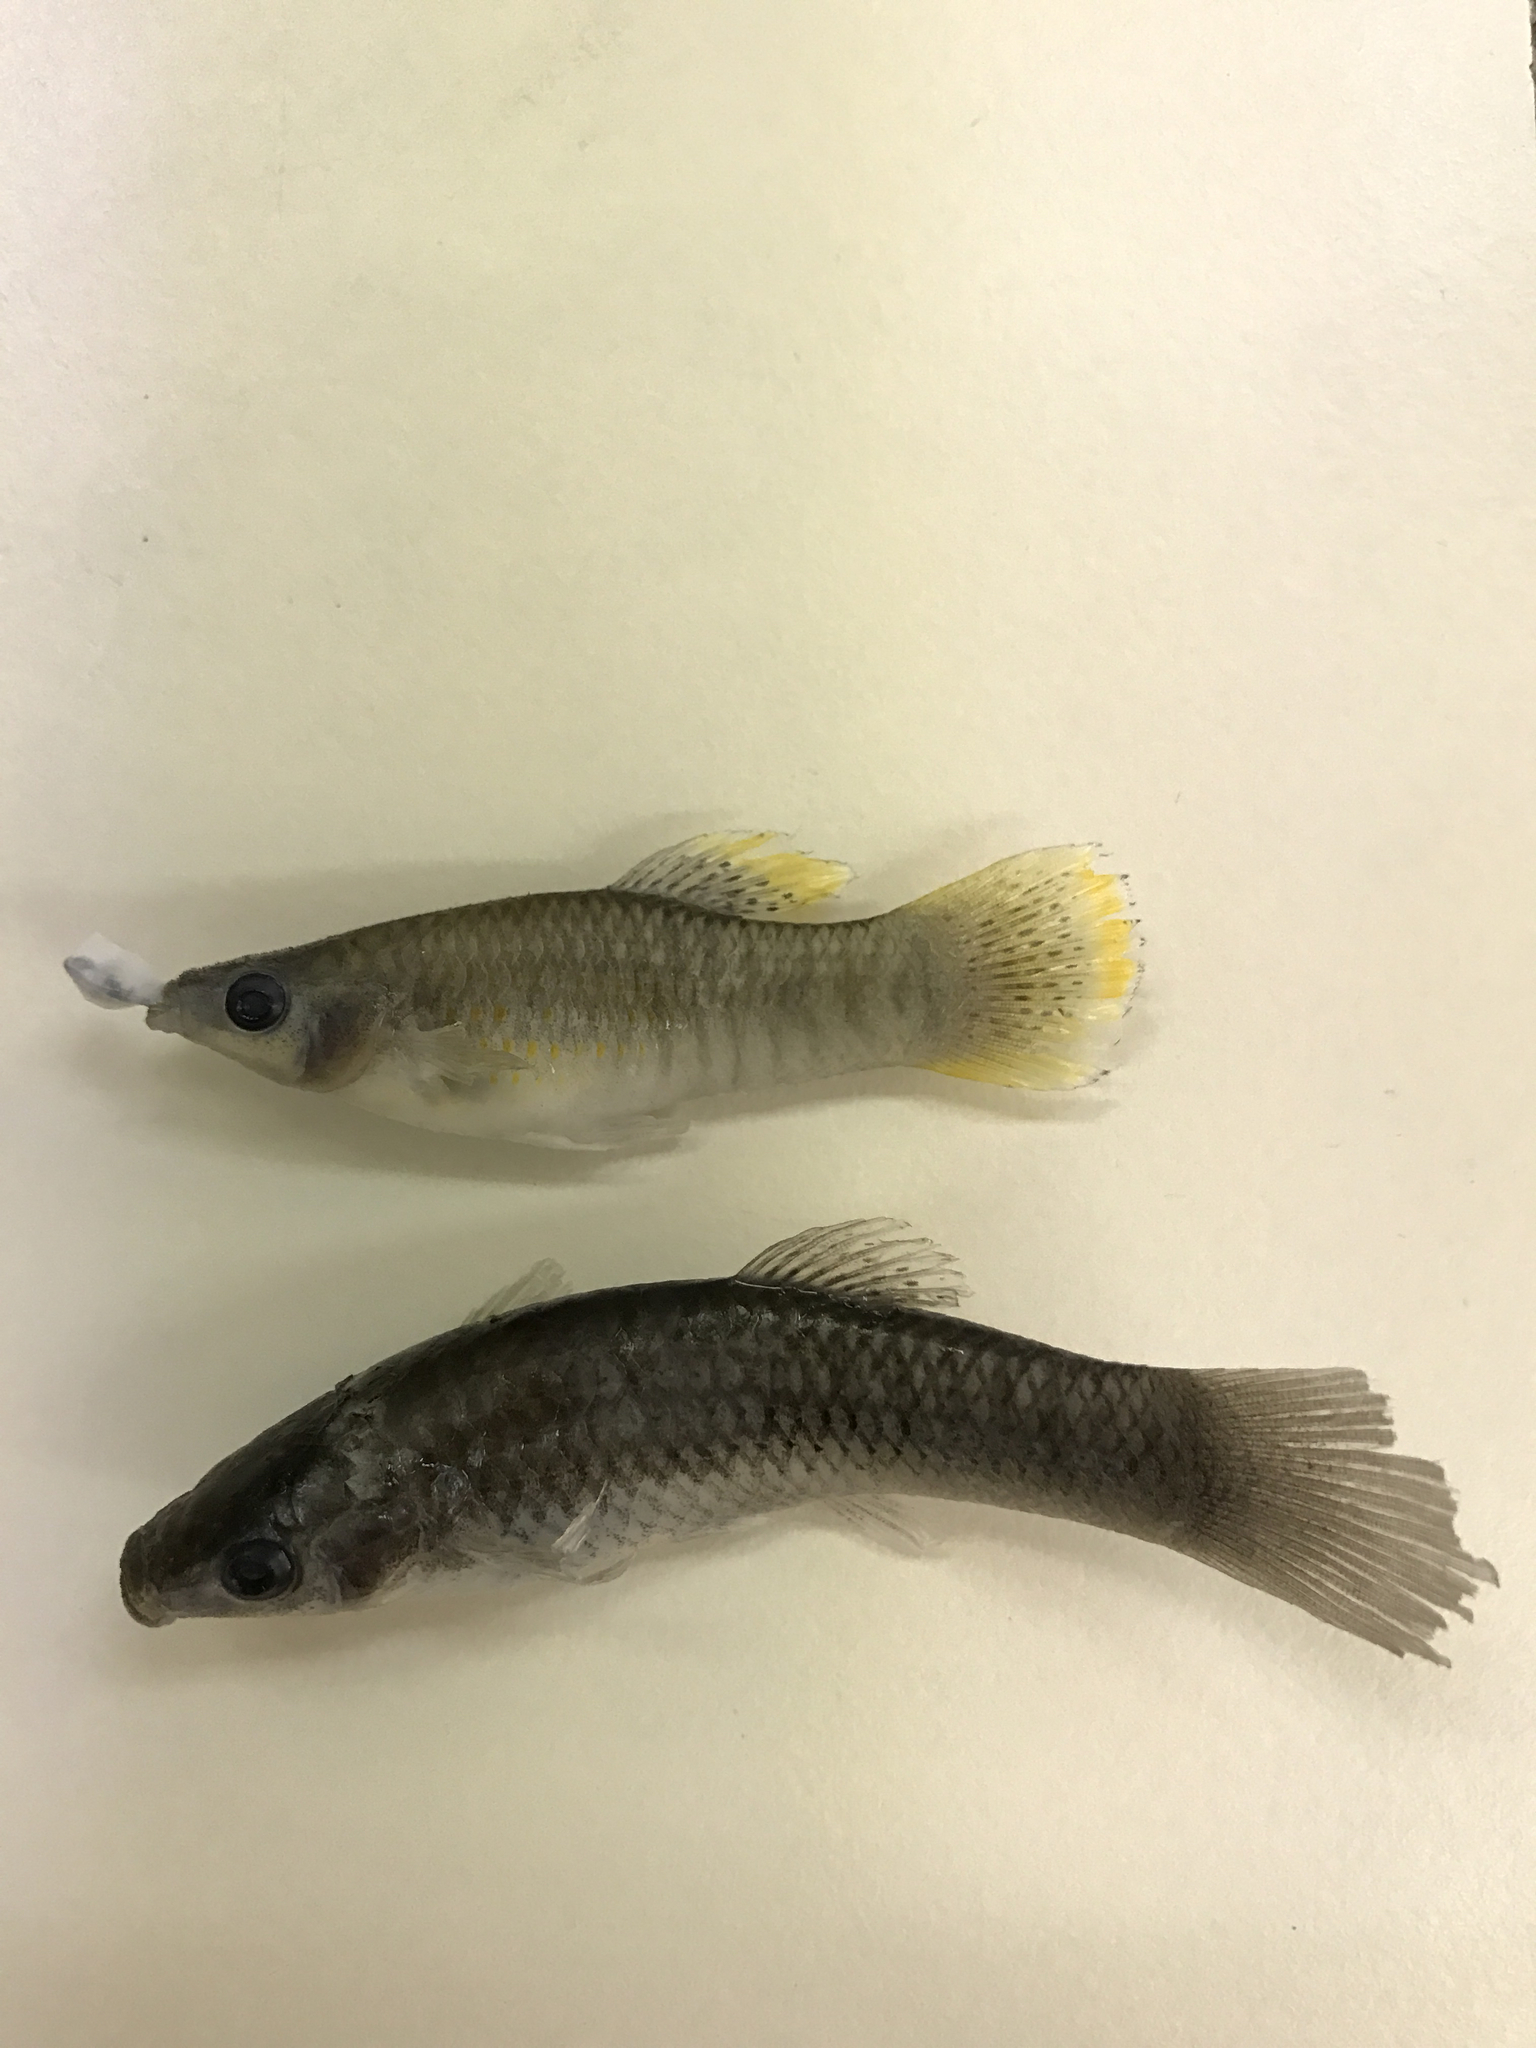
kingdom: Animalia
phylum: Chordata
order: Cyprinodontiformes
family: Poeciliidae
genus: Poecilia
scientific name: Poecilia mexicana
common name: Shortfin molly
